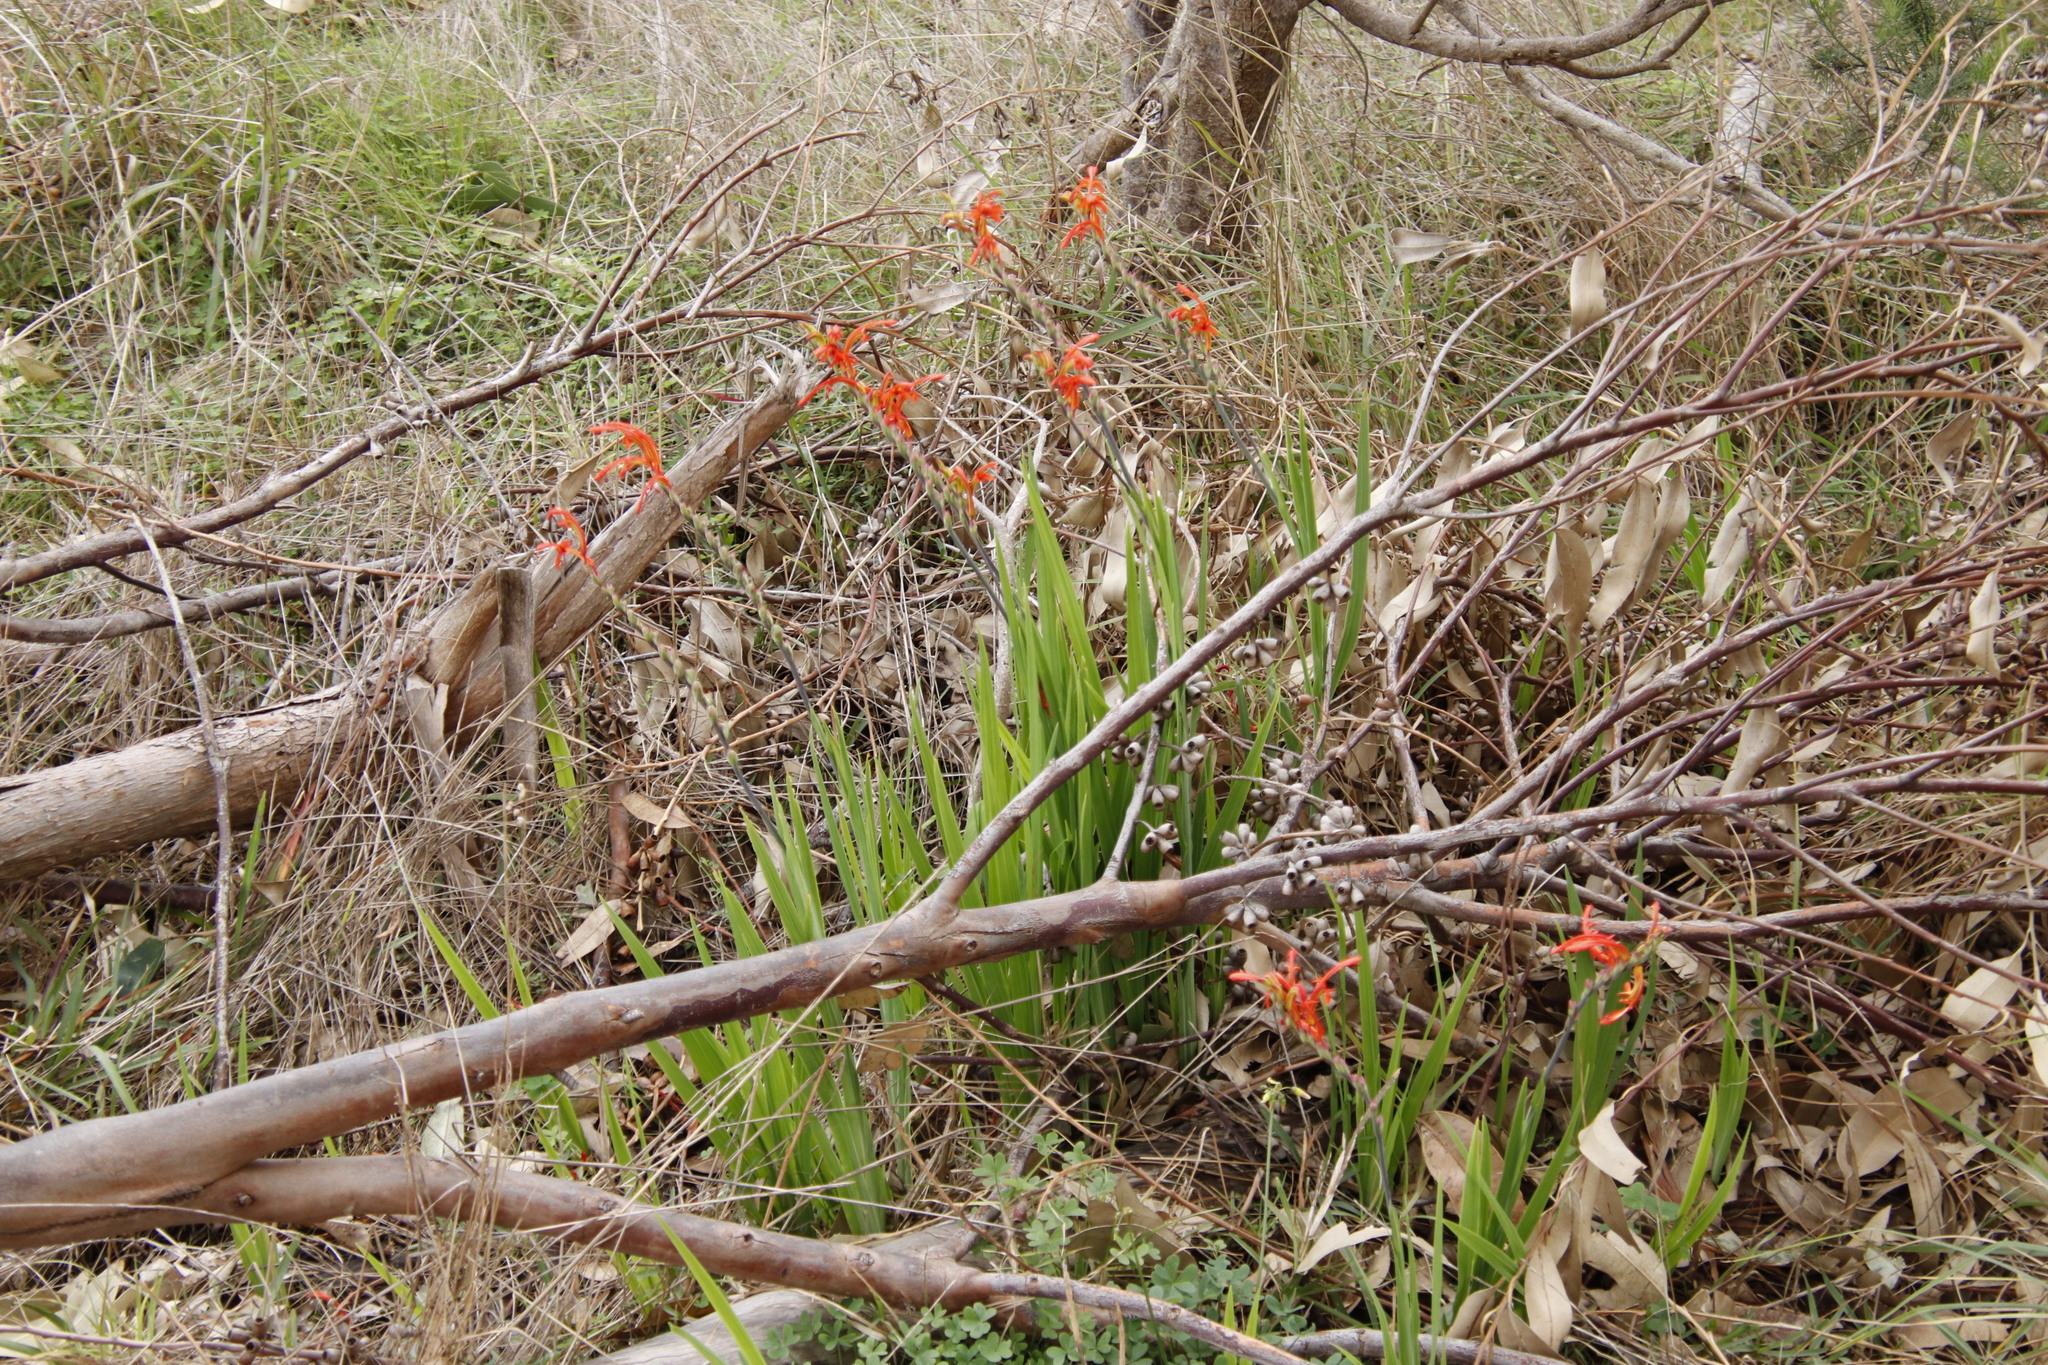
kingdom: Plantae
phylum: Tracheophyta
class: Liliopsida
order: Asparagales
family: Iridaceae
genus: Chasmanthe
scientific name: Chasmanthe aethiopica
